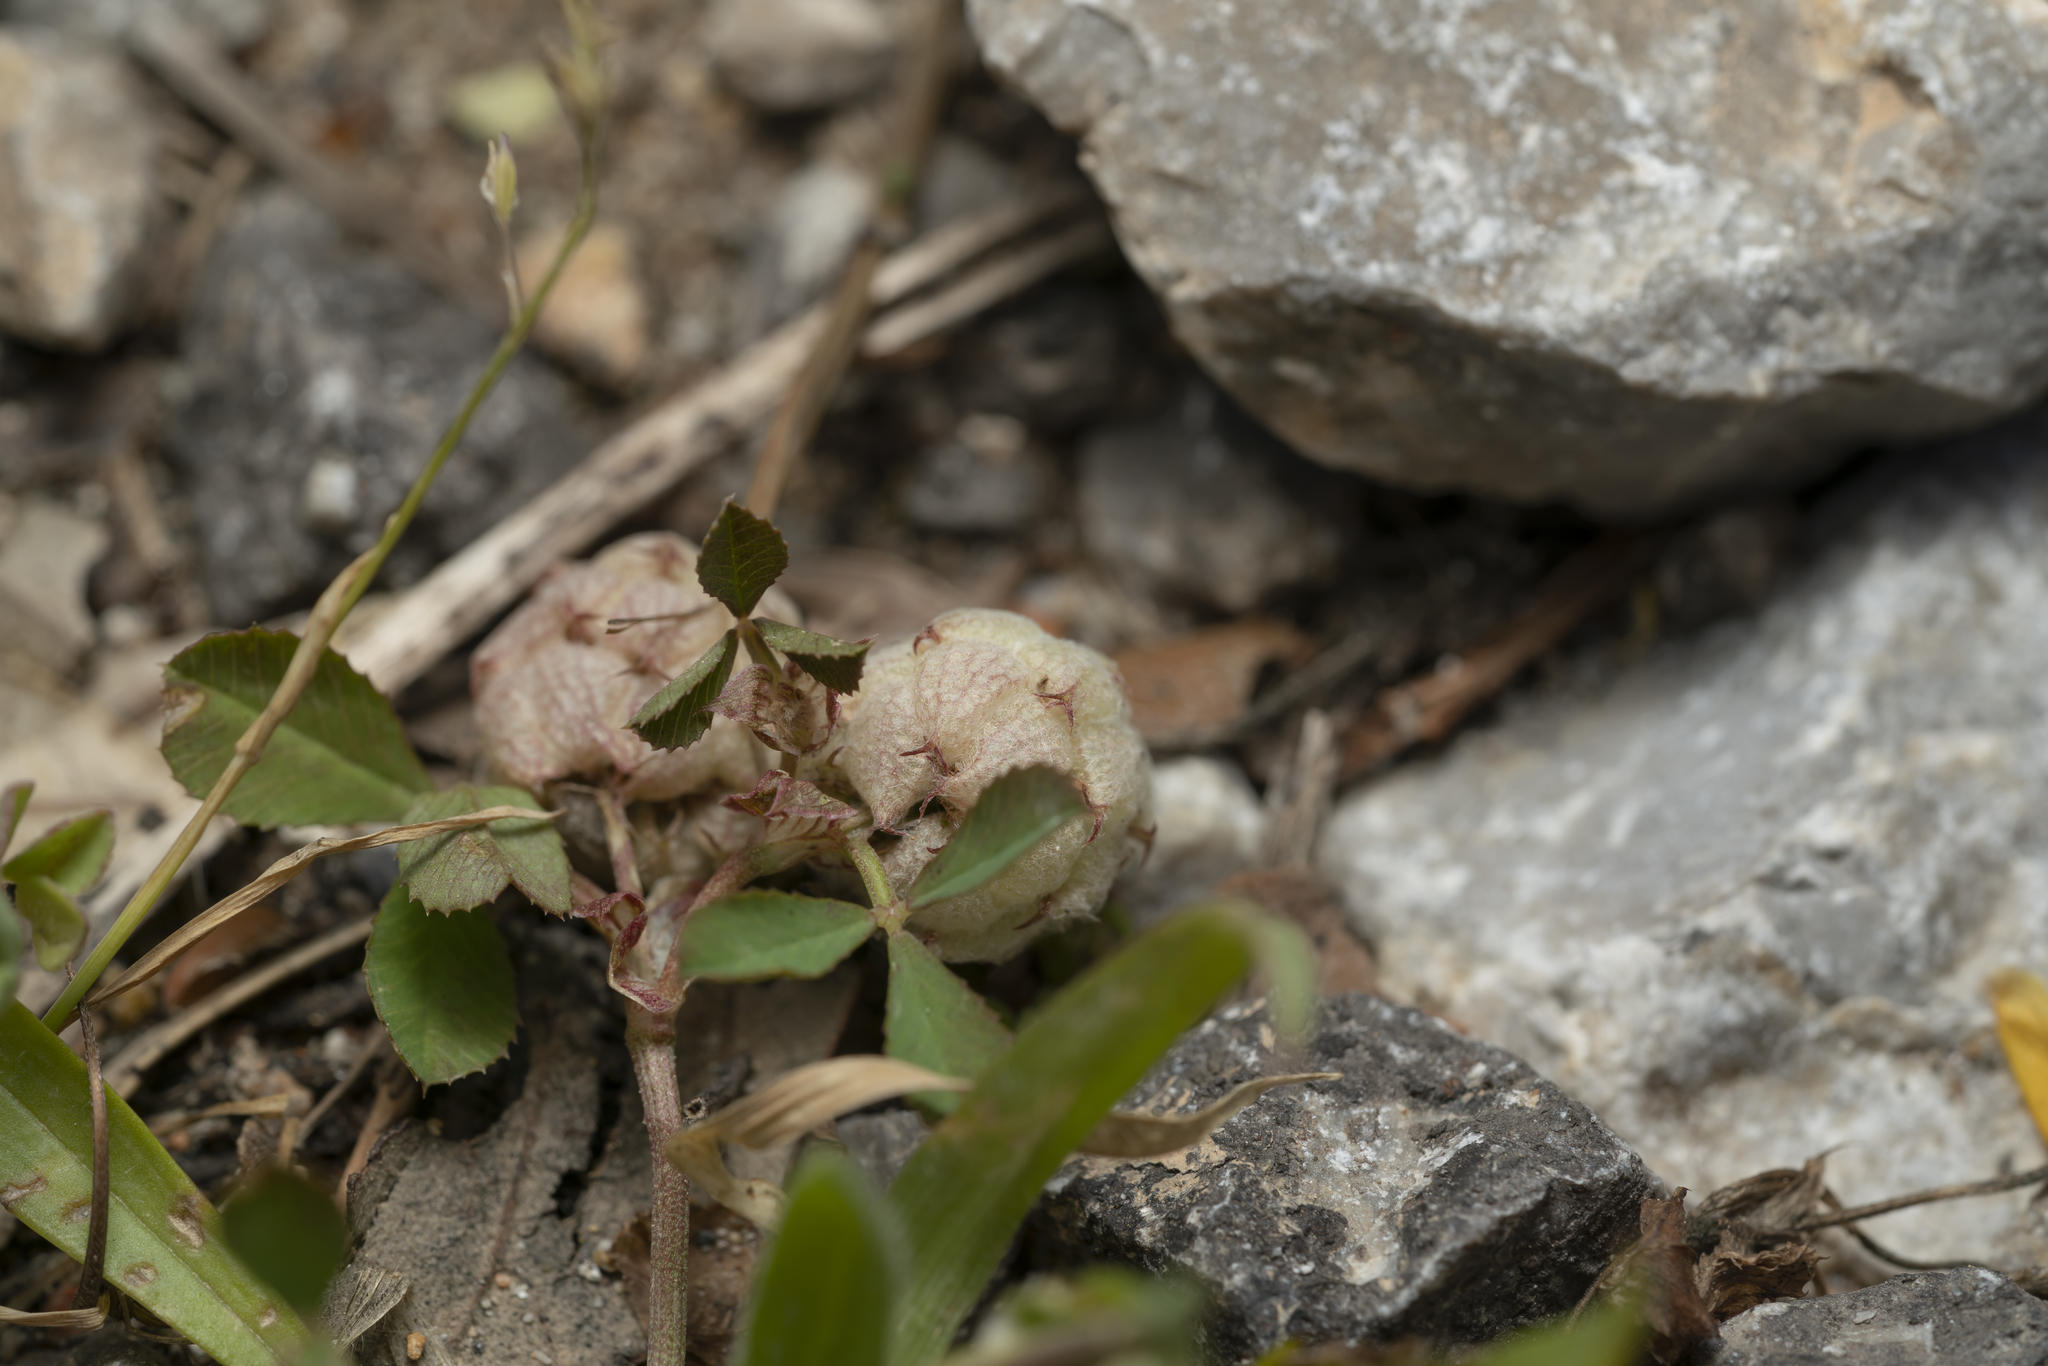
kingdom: Plantae
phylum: Tracheophyta
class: Magnoliopsida
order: Fabales
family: Fabaceae
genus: Trifolium
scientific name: Trifolium tomentosum
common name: Woolly clover
